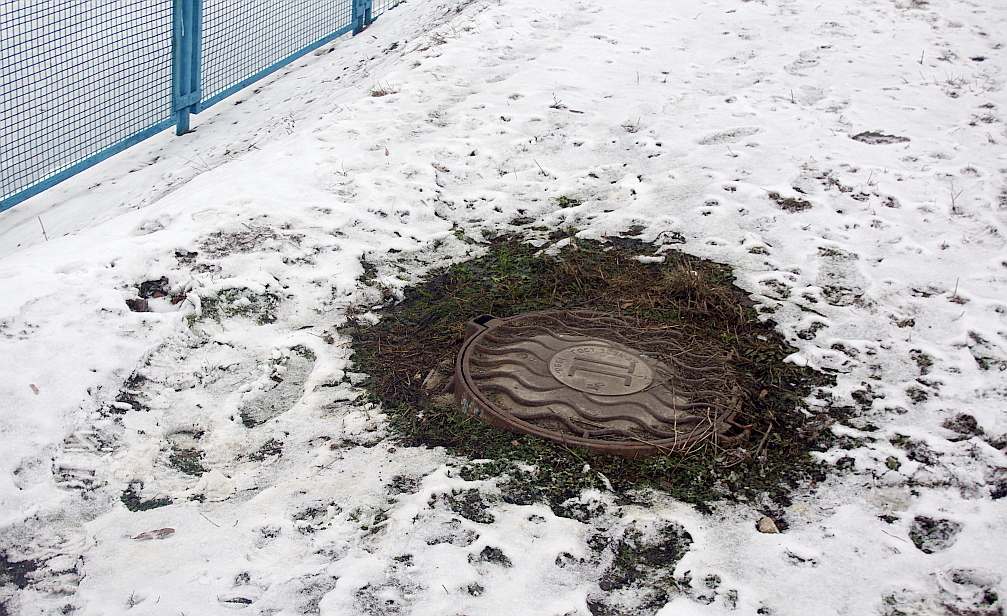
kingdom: Plantae
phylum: Tracheophyta
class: Magnoliopsida
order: Caryophyllales
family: Caryophyllaceae
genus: Cerastium
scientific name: Cerastium holosteoides
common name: Big chickweed
